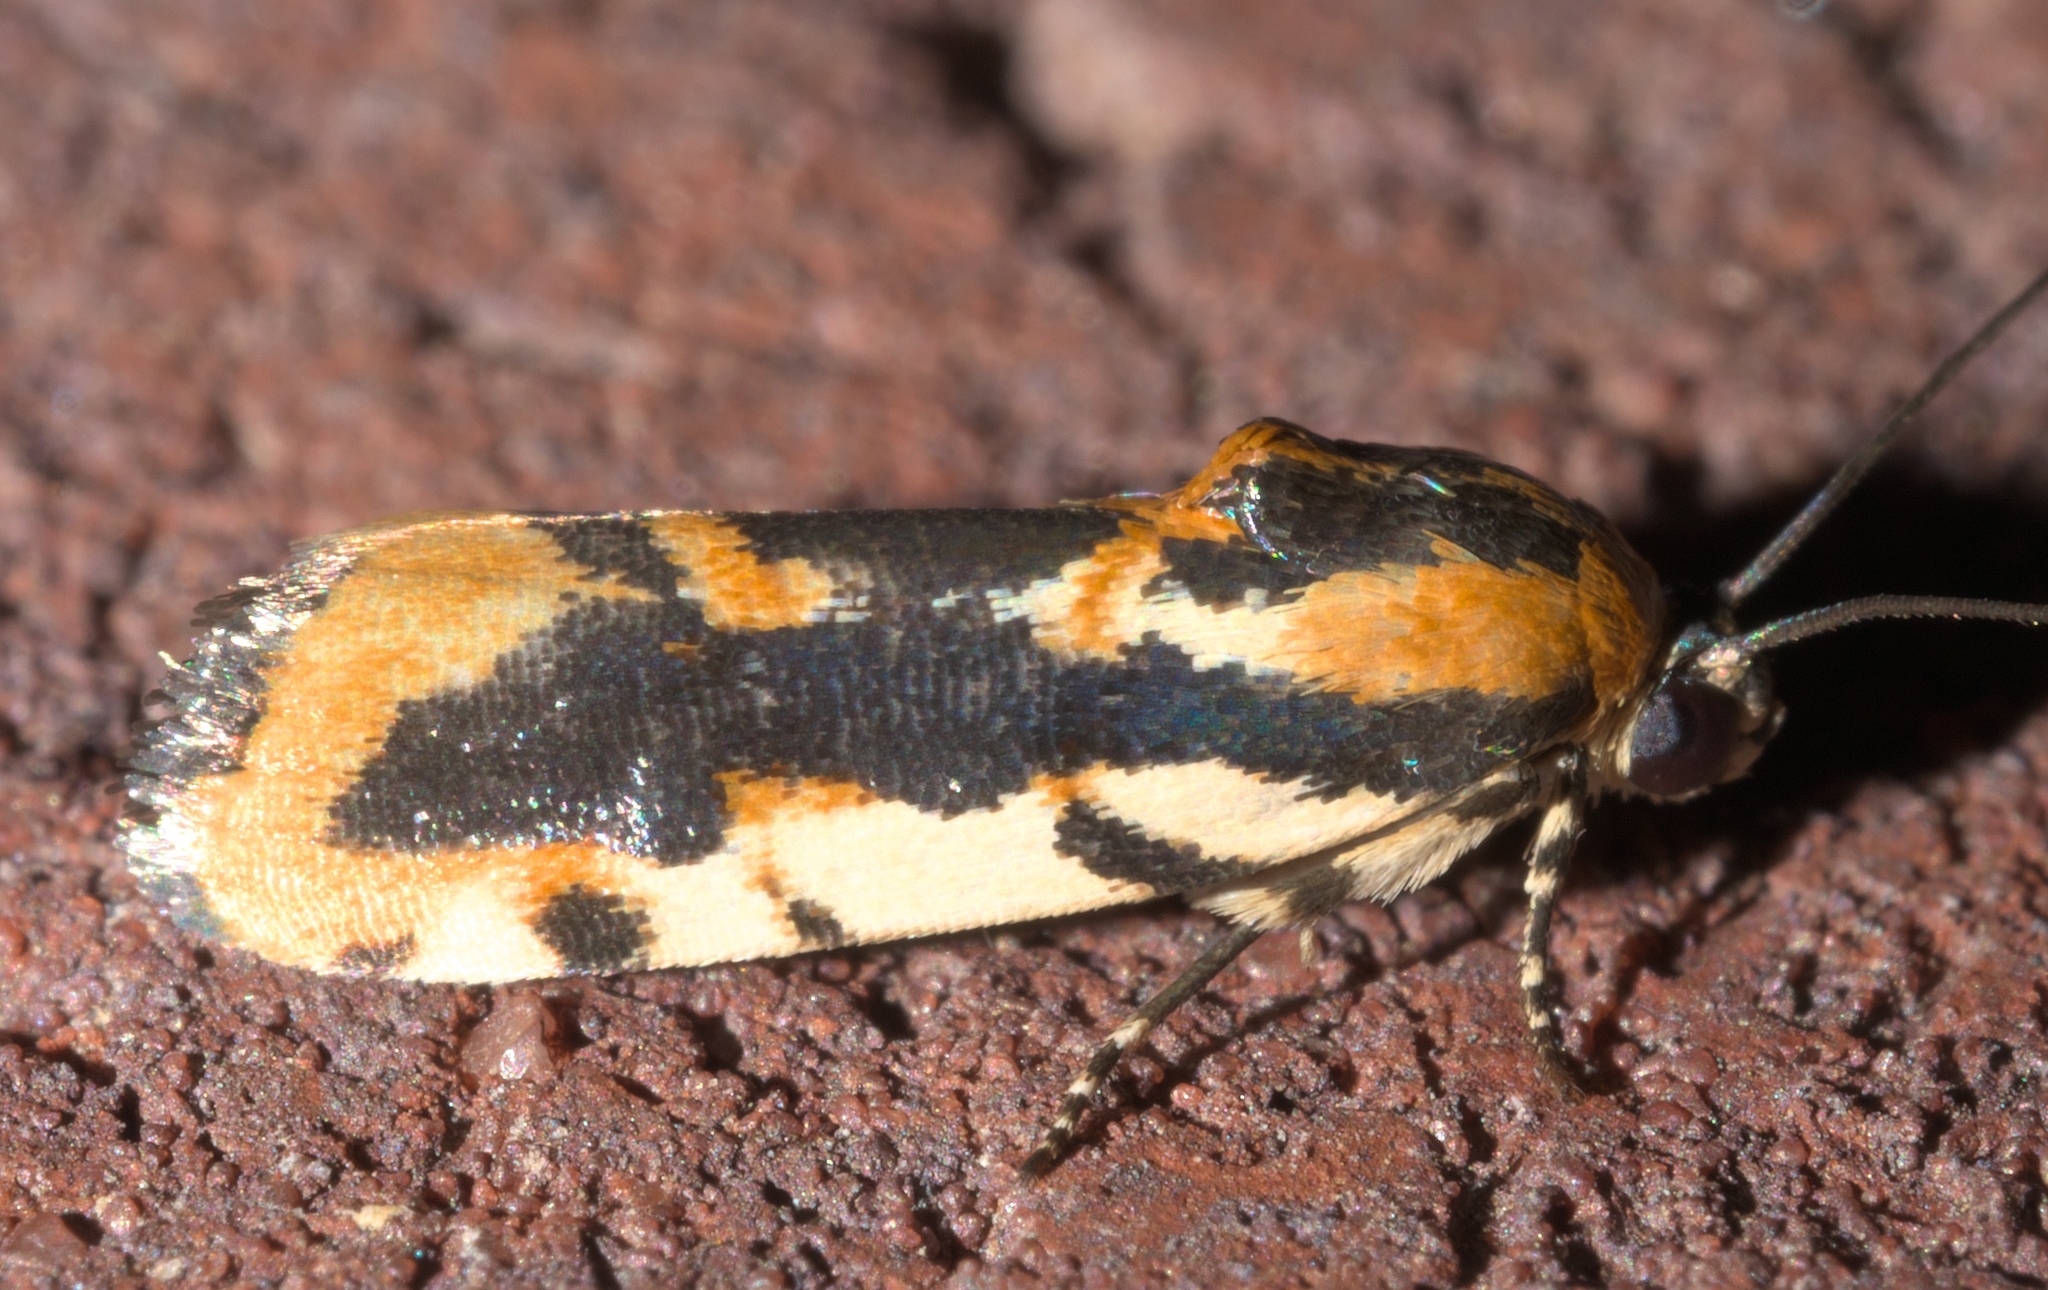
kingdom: Animalia
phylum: Arthropoda
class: Insecta
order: Lepidoptera
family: Noctuidae
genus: Acontia
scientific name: Acontia leo
